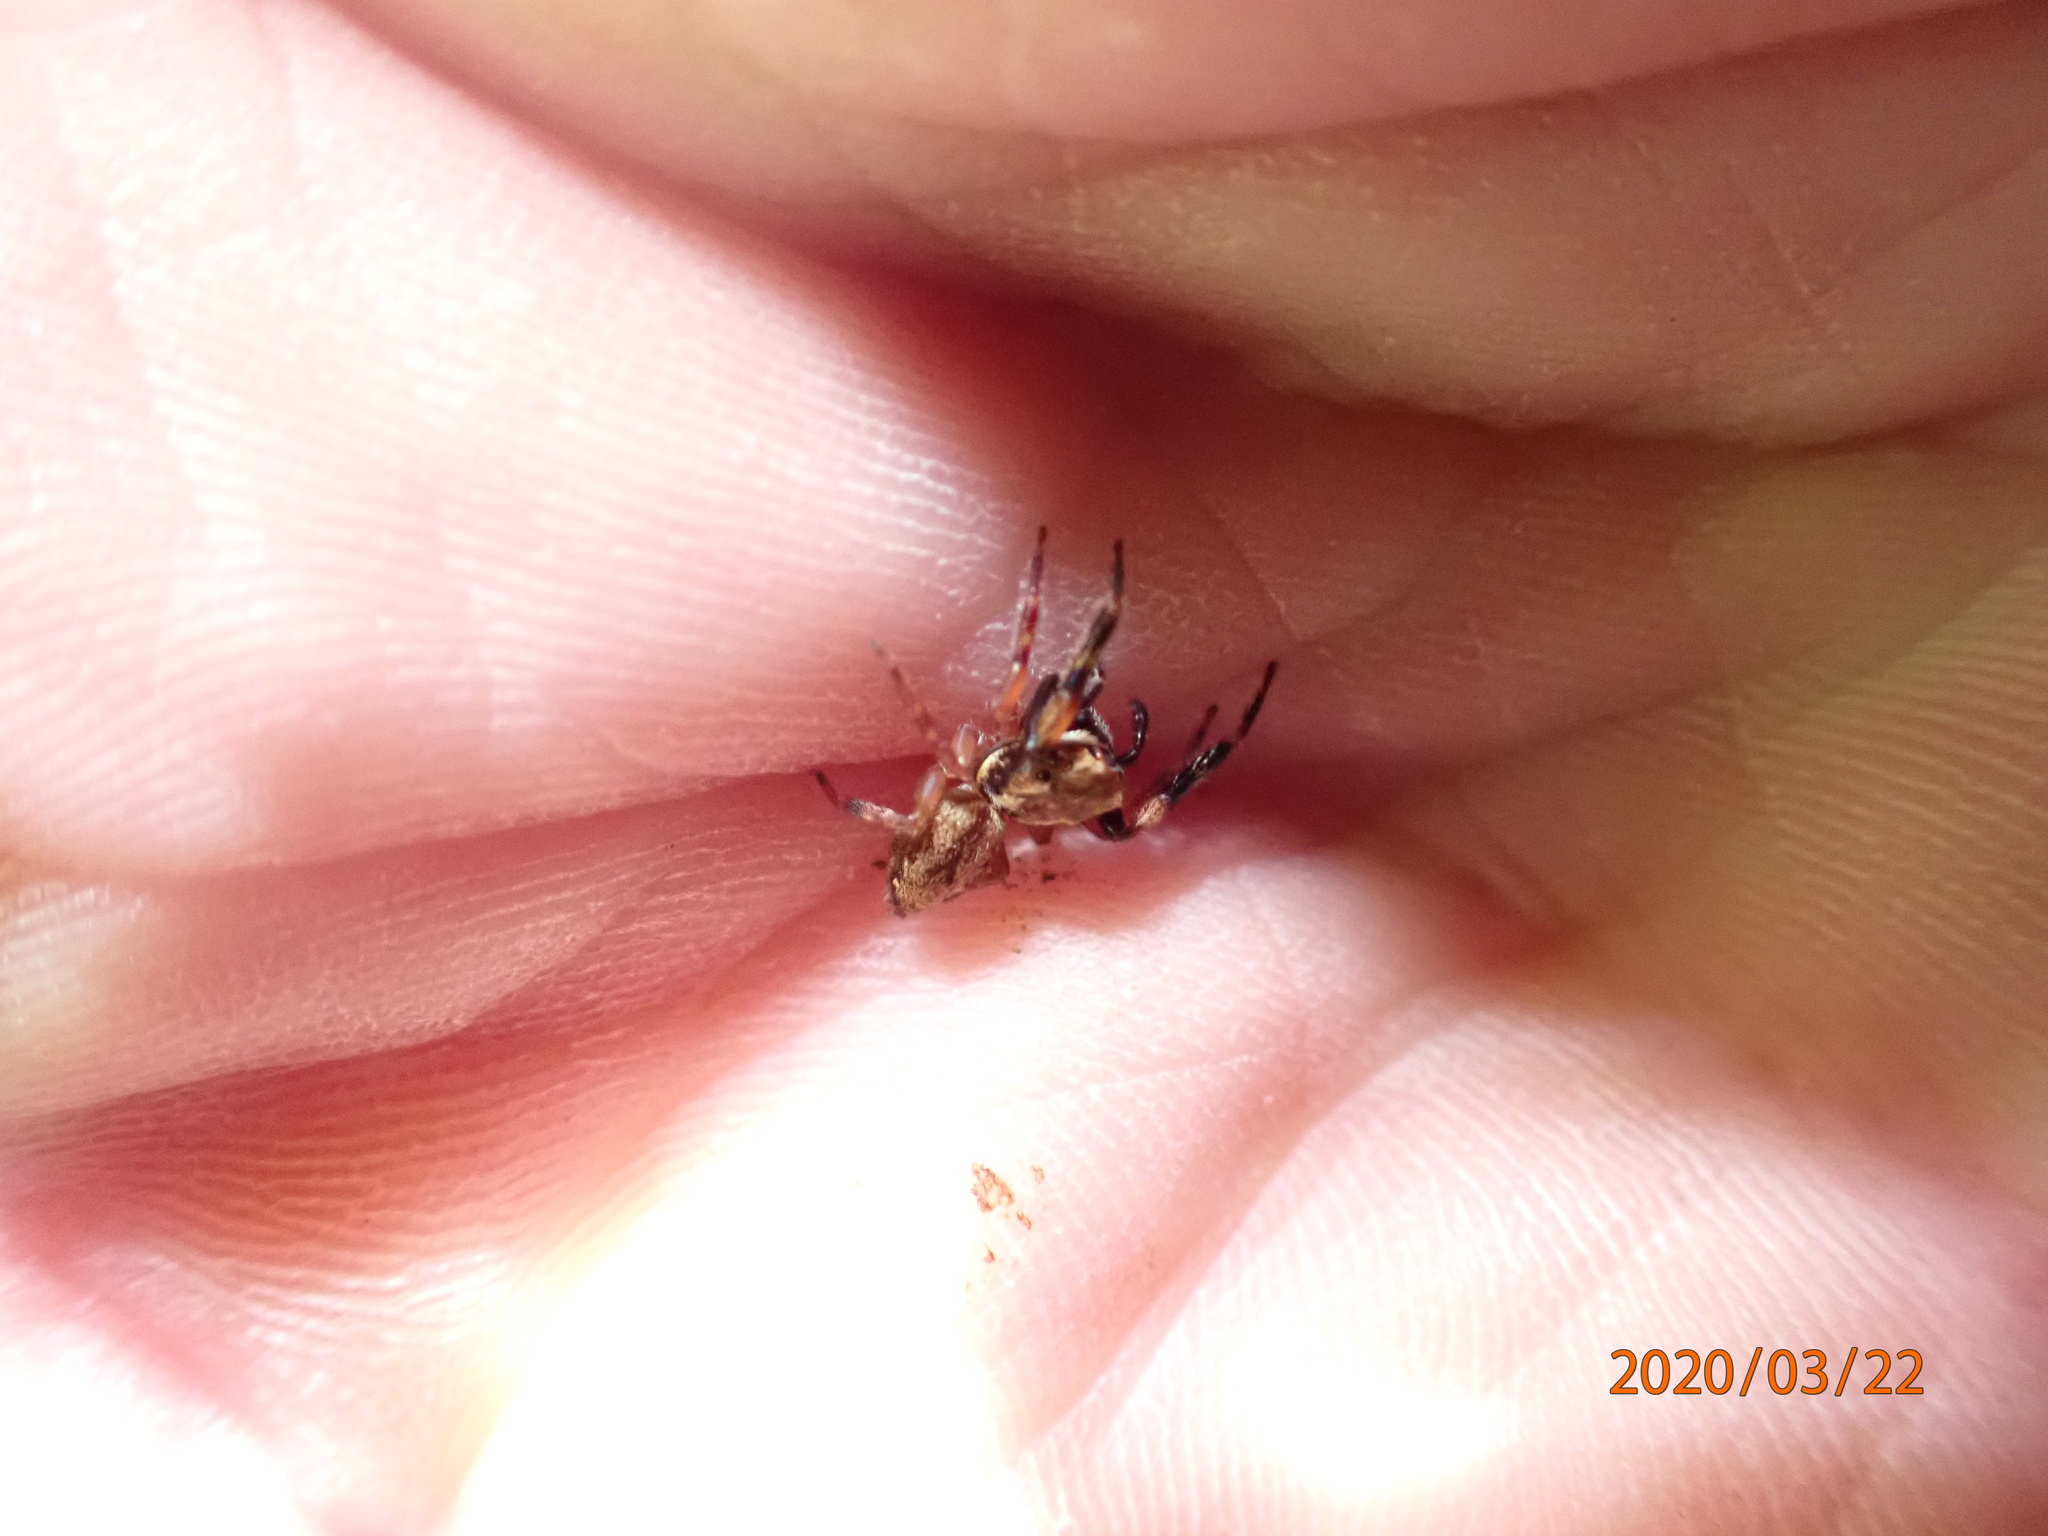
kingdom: Animalia
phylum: Arthropoda
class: Arachnida
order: Araneae
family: Salticidae
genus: Trite
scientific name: Trite auricoma
